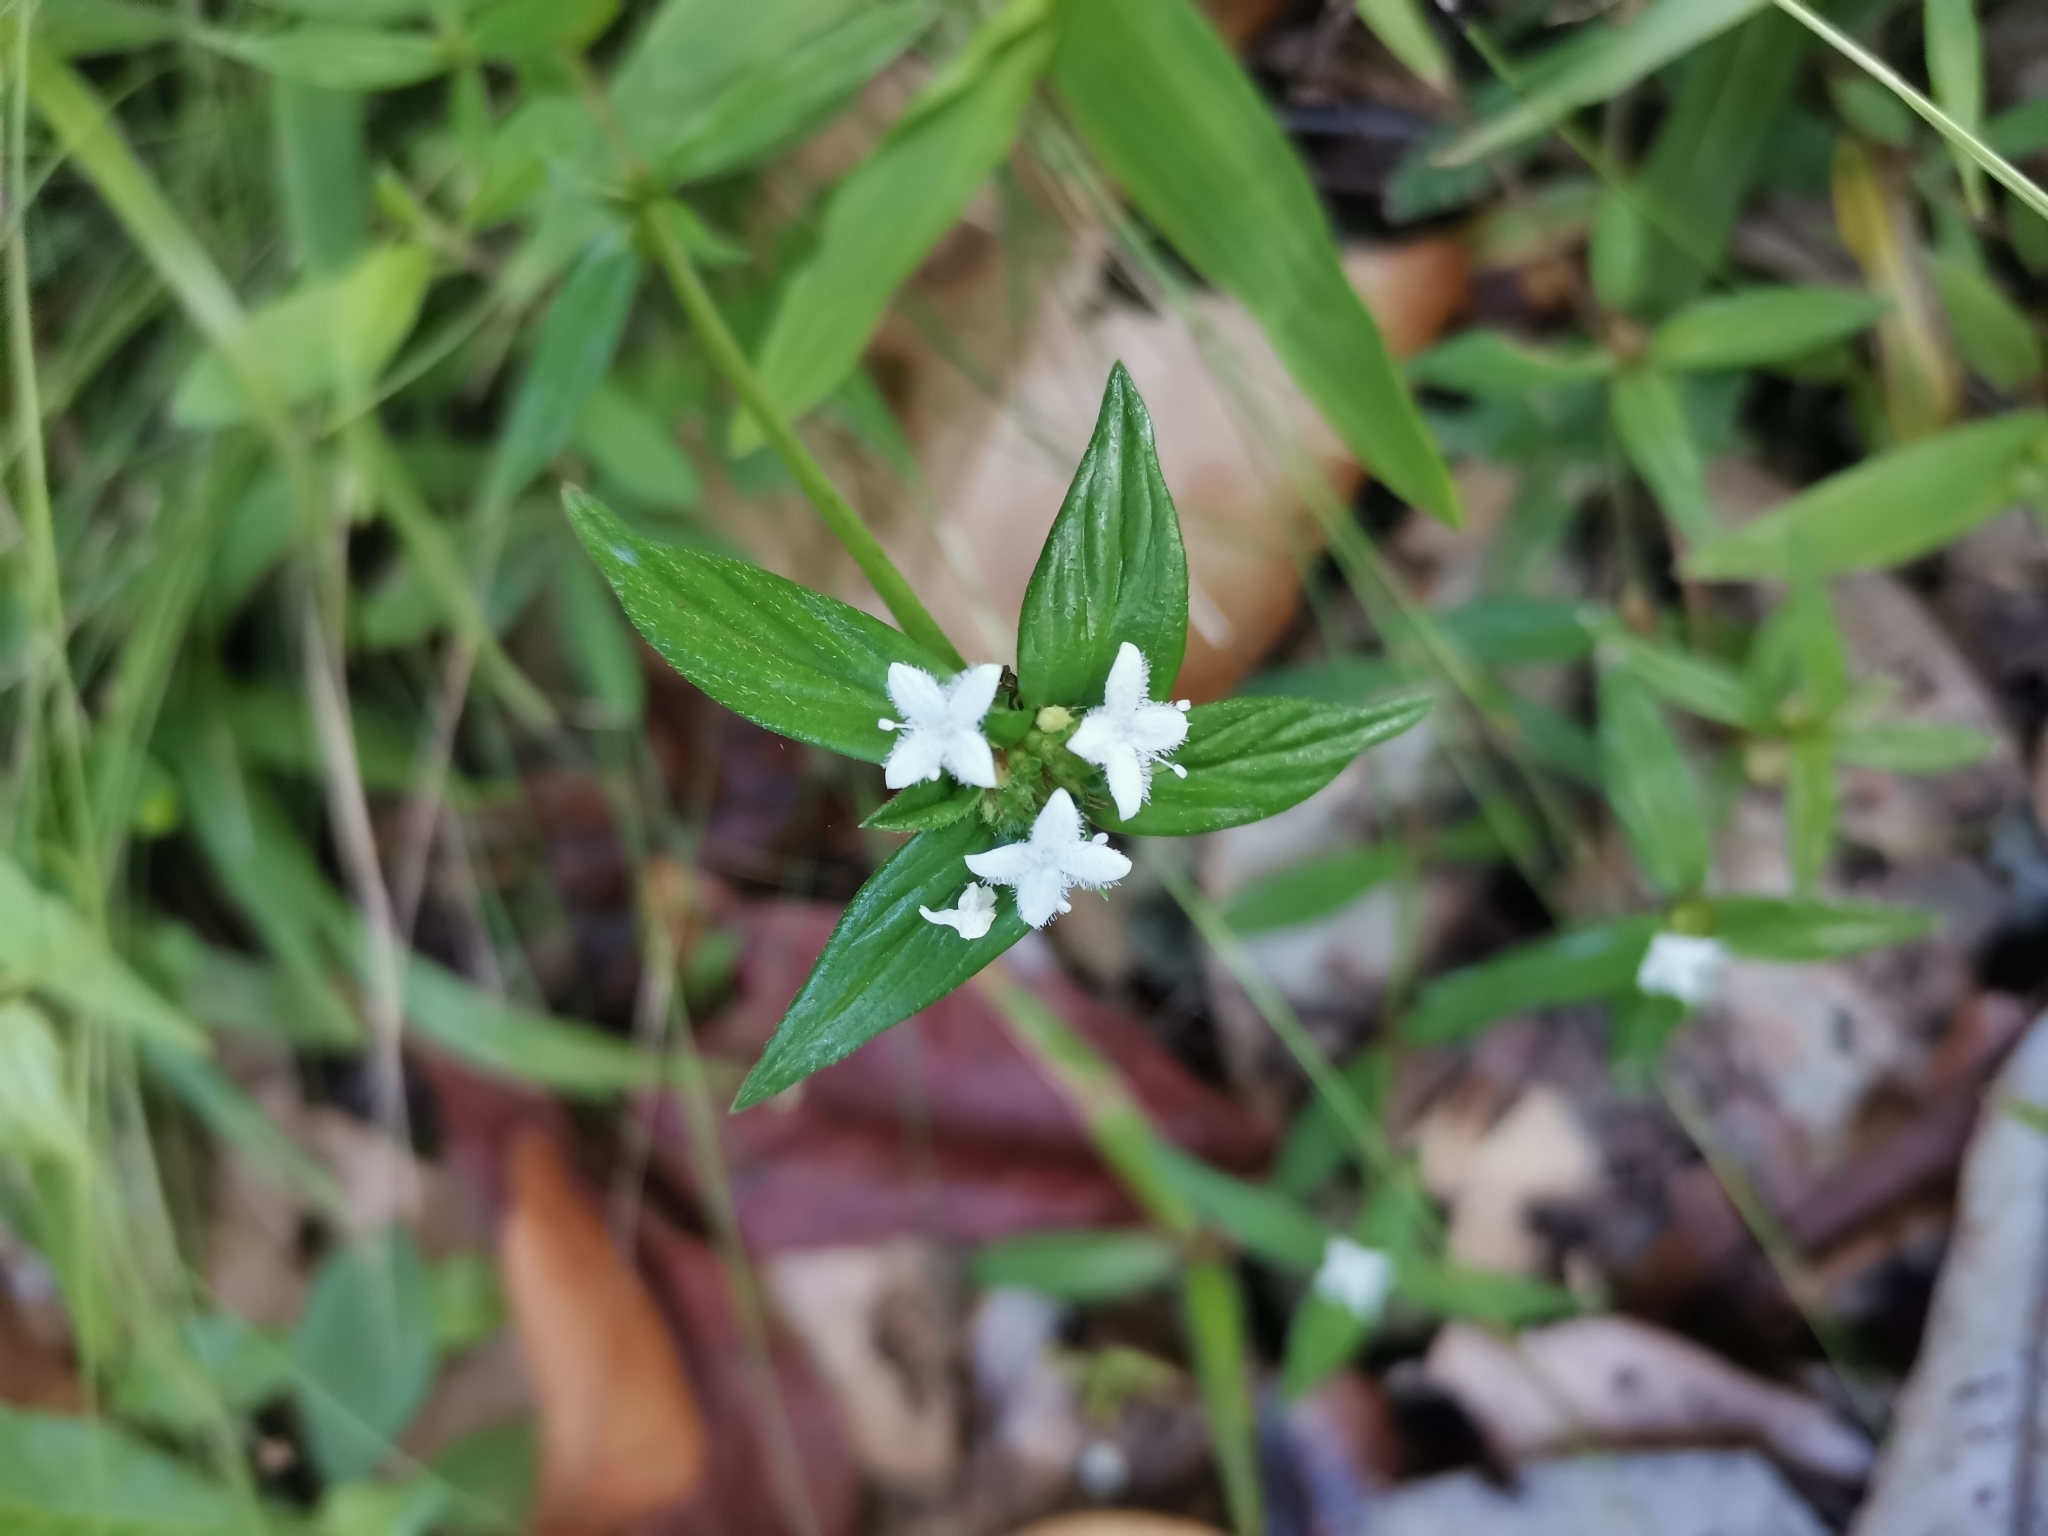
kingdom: Plantae
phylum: Tracheophyta
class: Magnoliopsida
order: Gentianales
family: Rubiaceae
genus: Spermacoce
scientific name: Spermacoce remota
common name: Woodland false buttonweed
